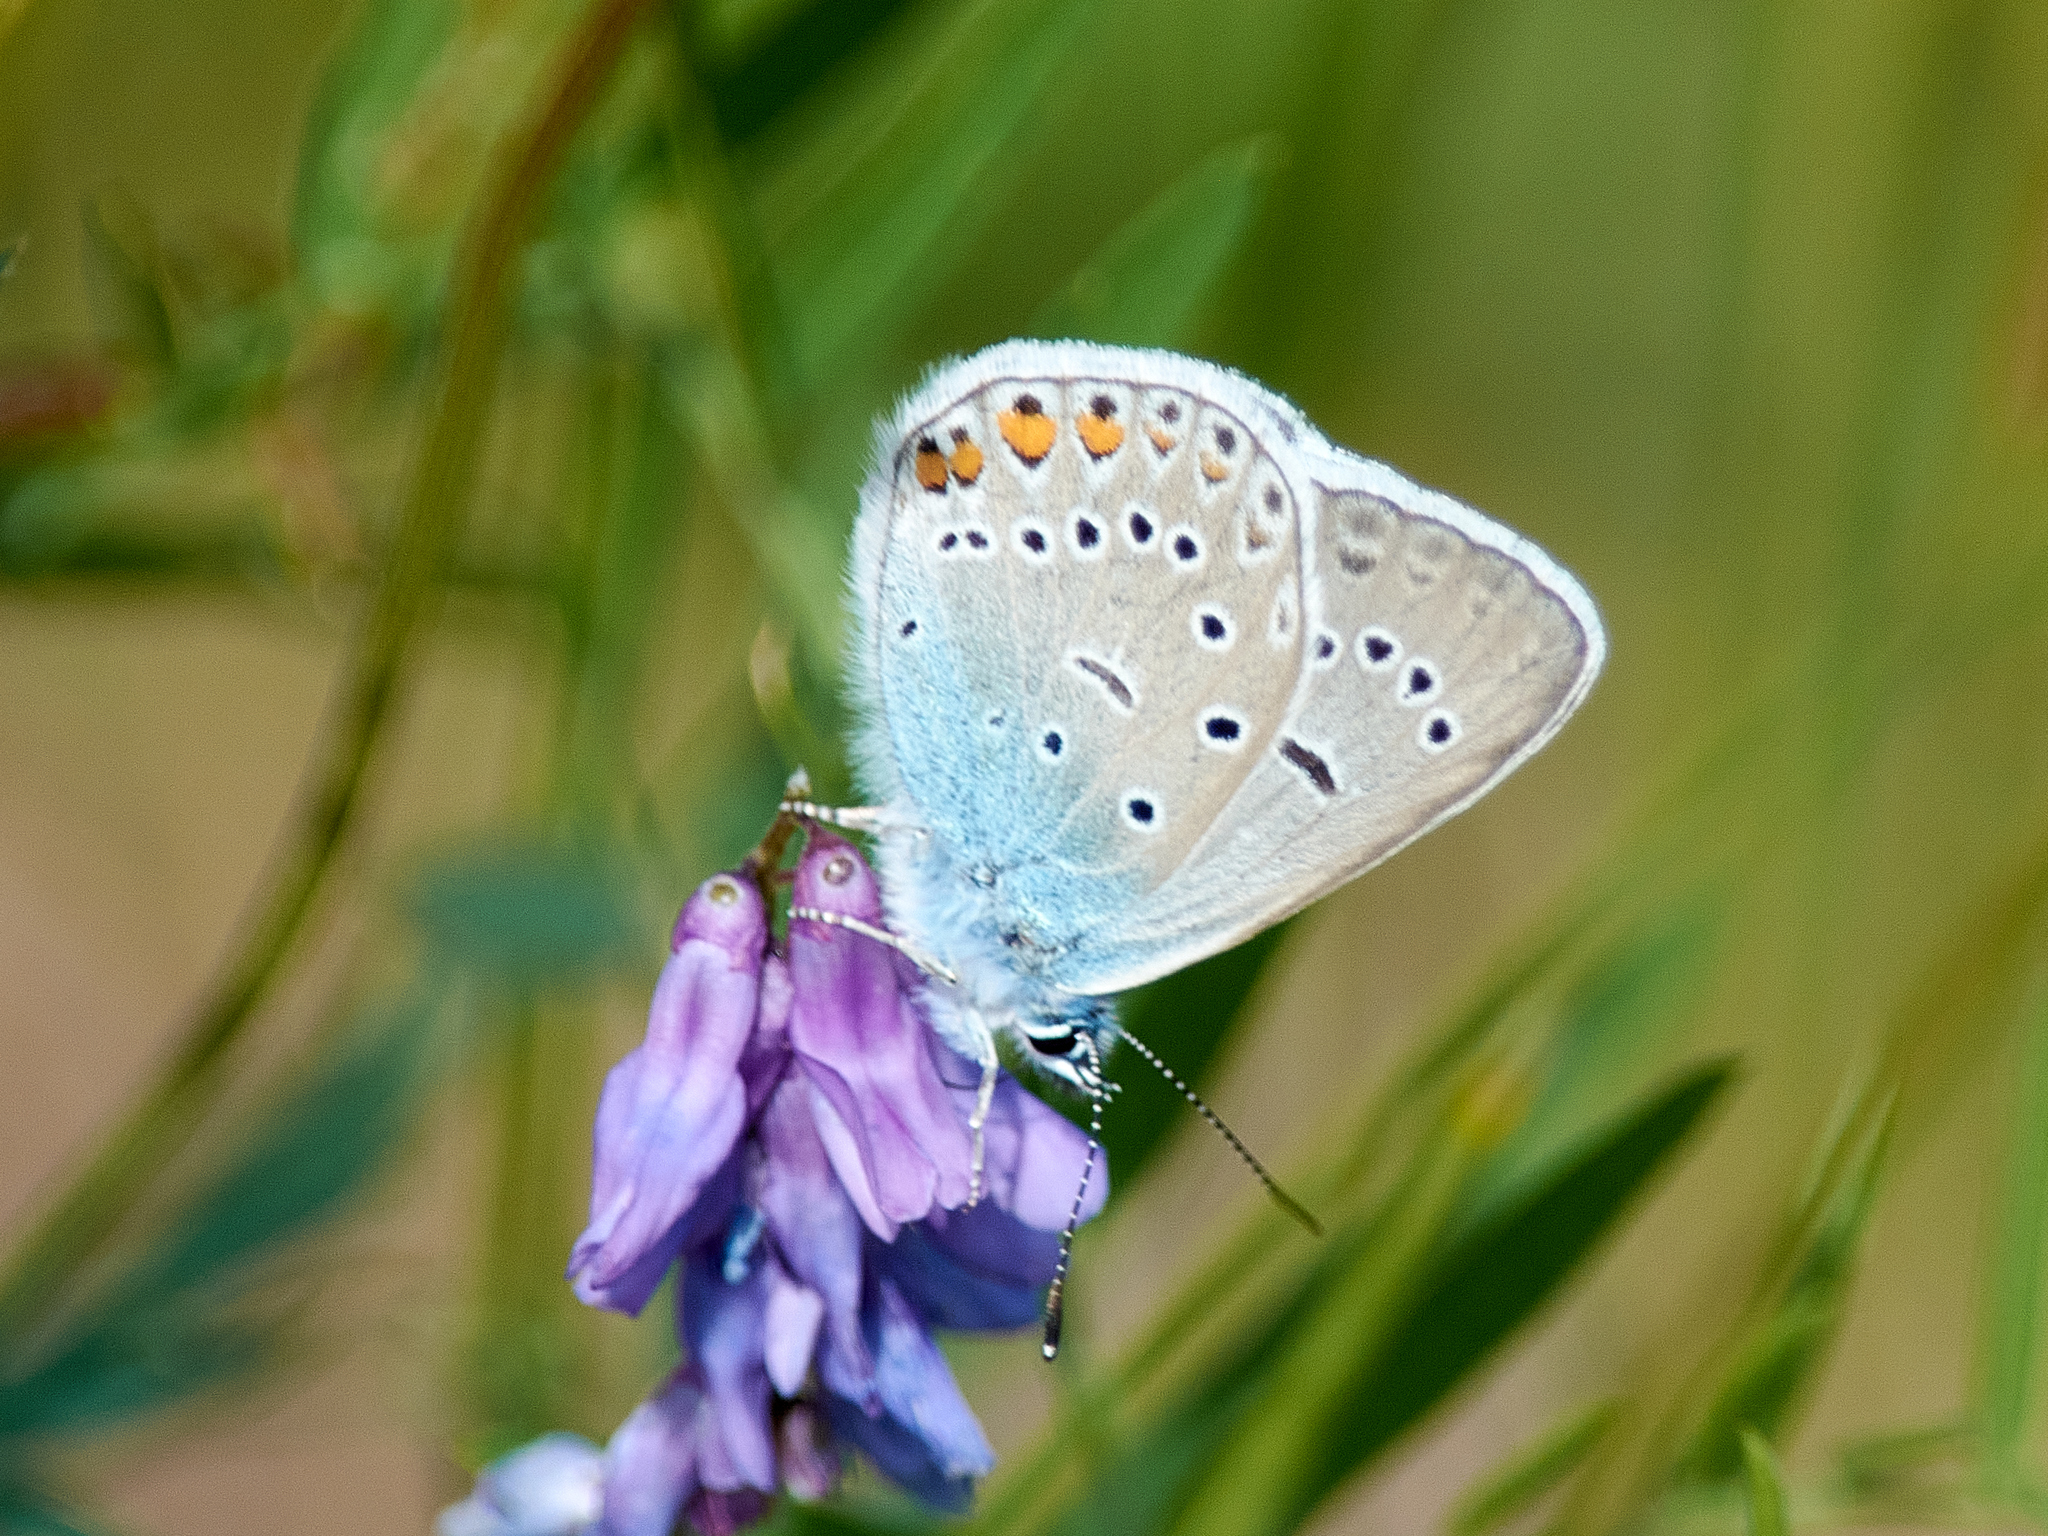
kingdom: Animalia
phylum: Arthropoda
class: Insecta
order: Lepidoptera
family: Lycaenidae
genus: Plebejus
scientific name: Plebejus amanda
